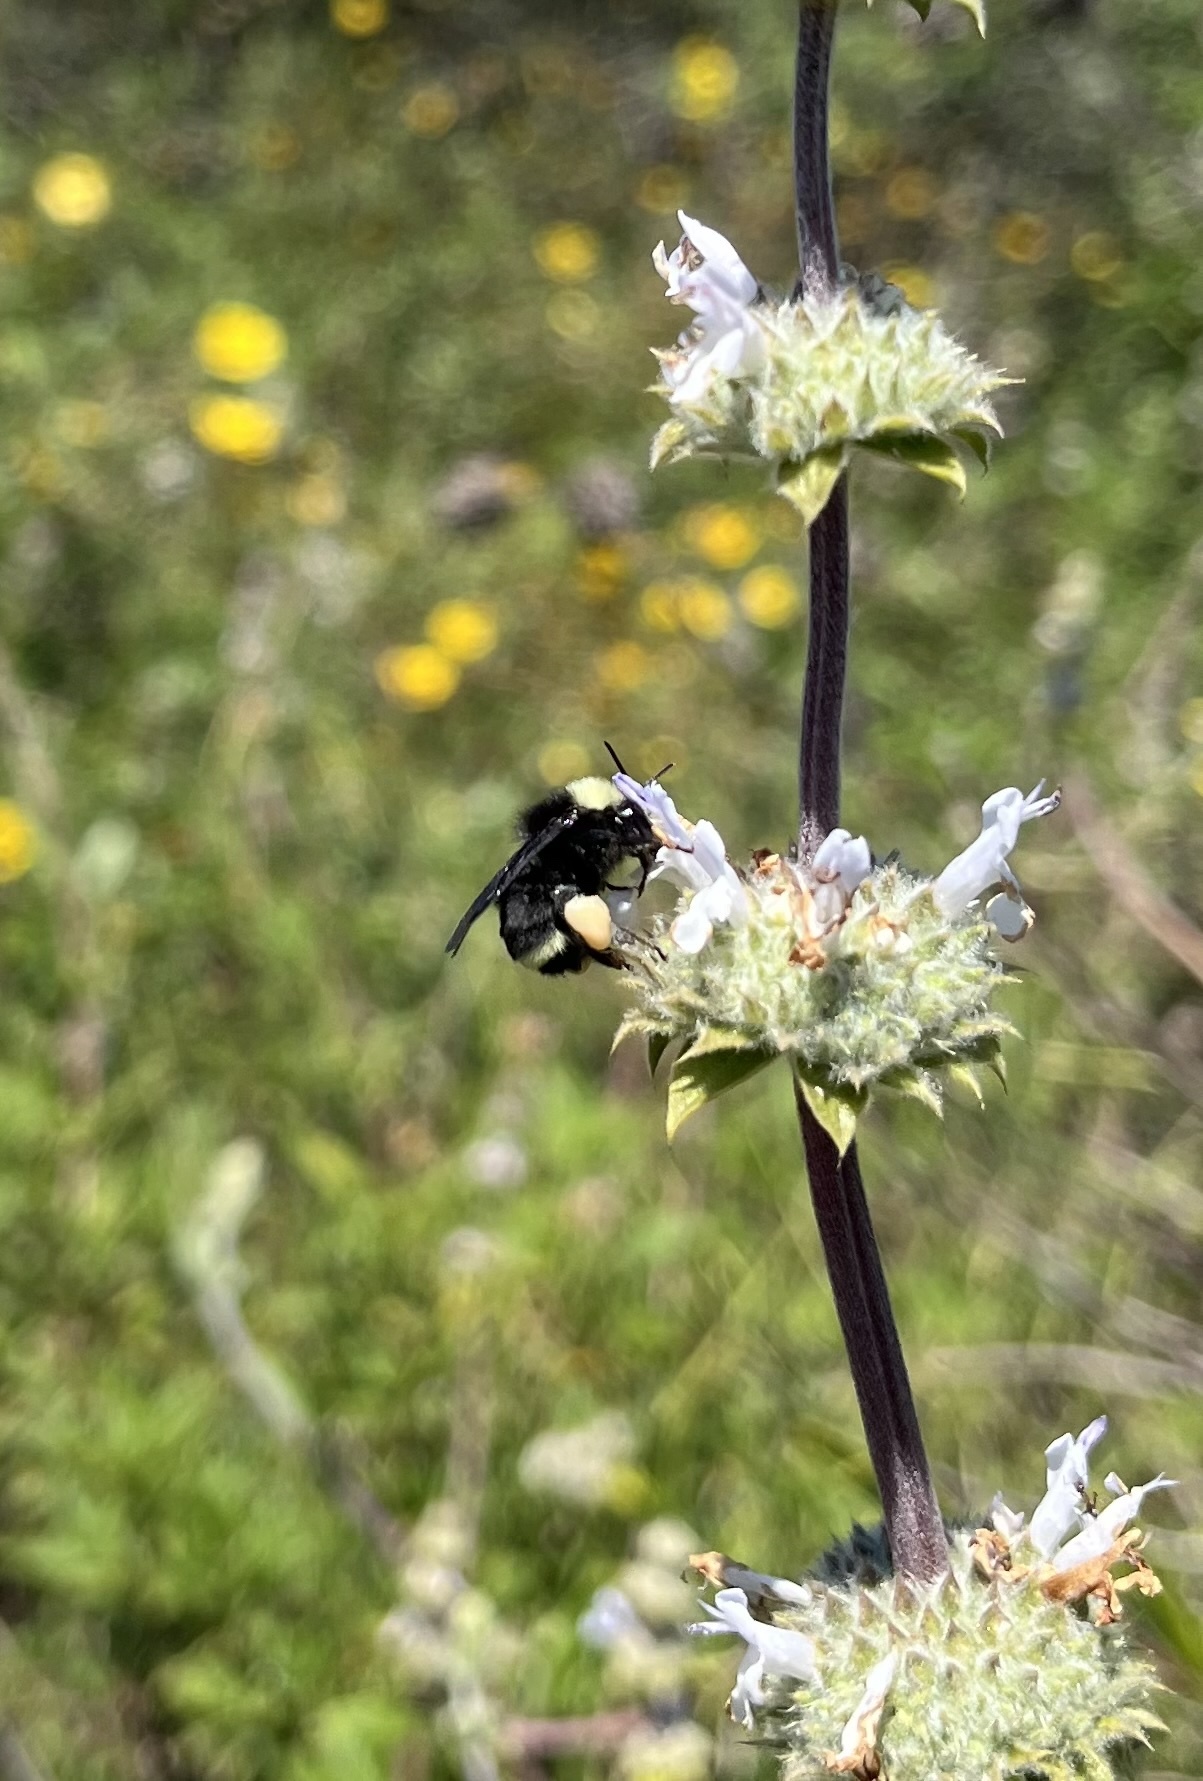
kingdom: Animalia
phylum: Arthropoda
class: Insecta
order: Hymenoptera
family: Apidae
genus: Bombus
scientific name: Bombus vosnesenskii
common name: Vosnesensky bumble bee
